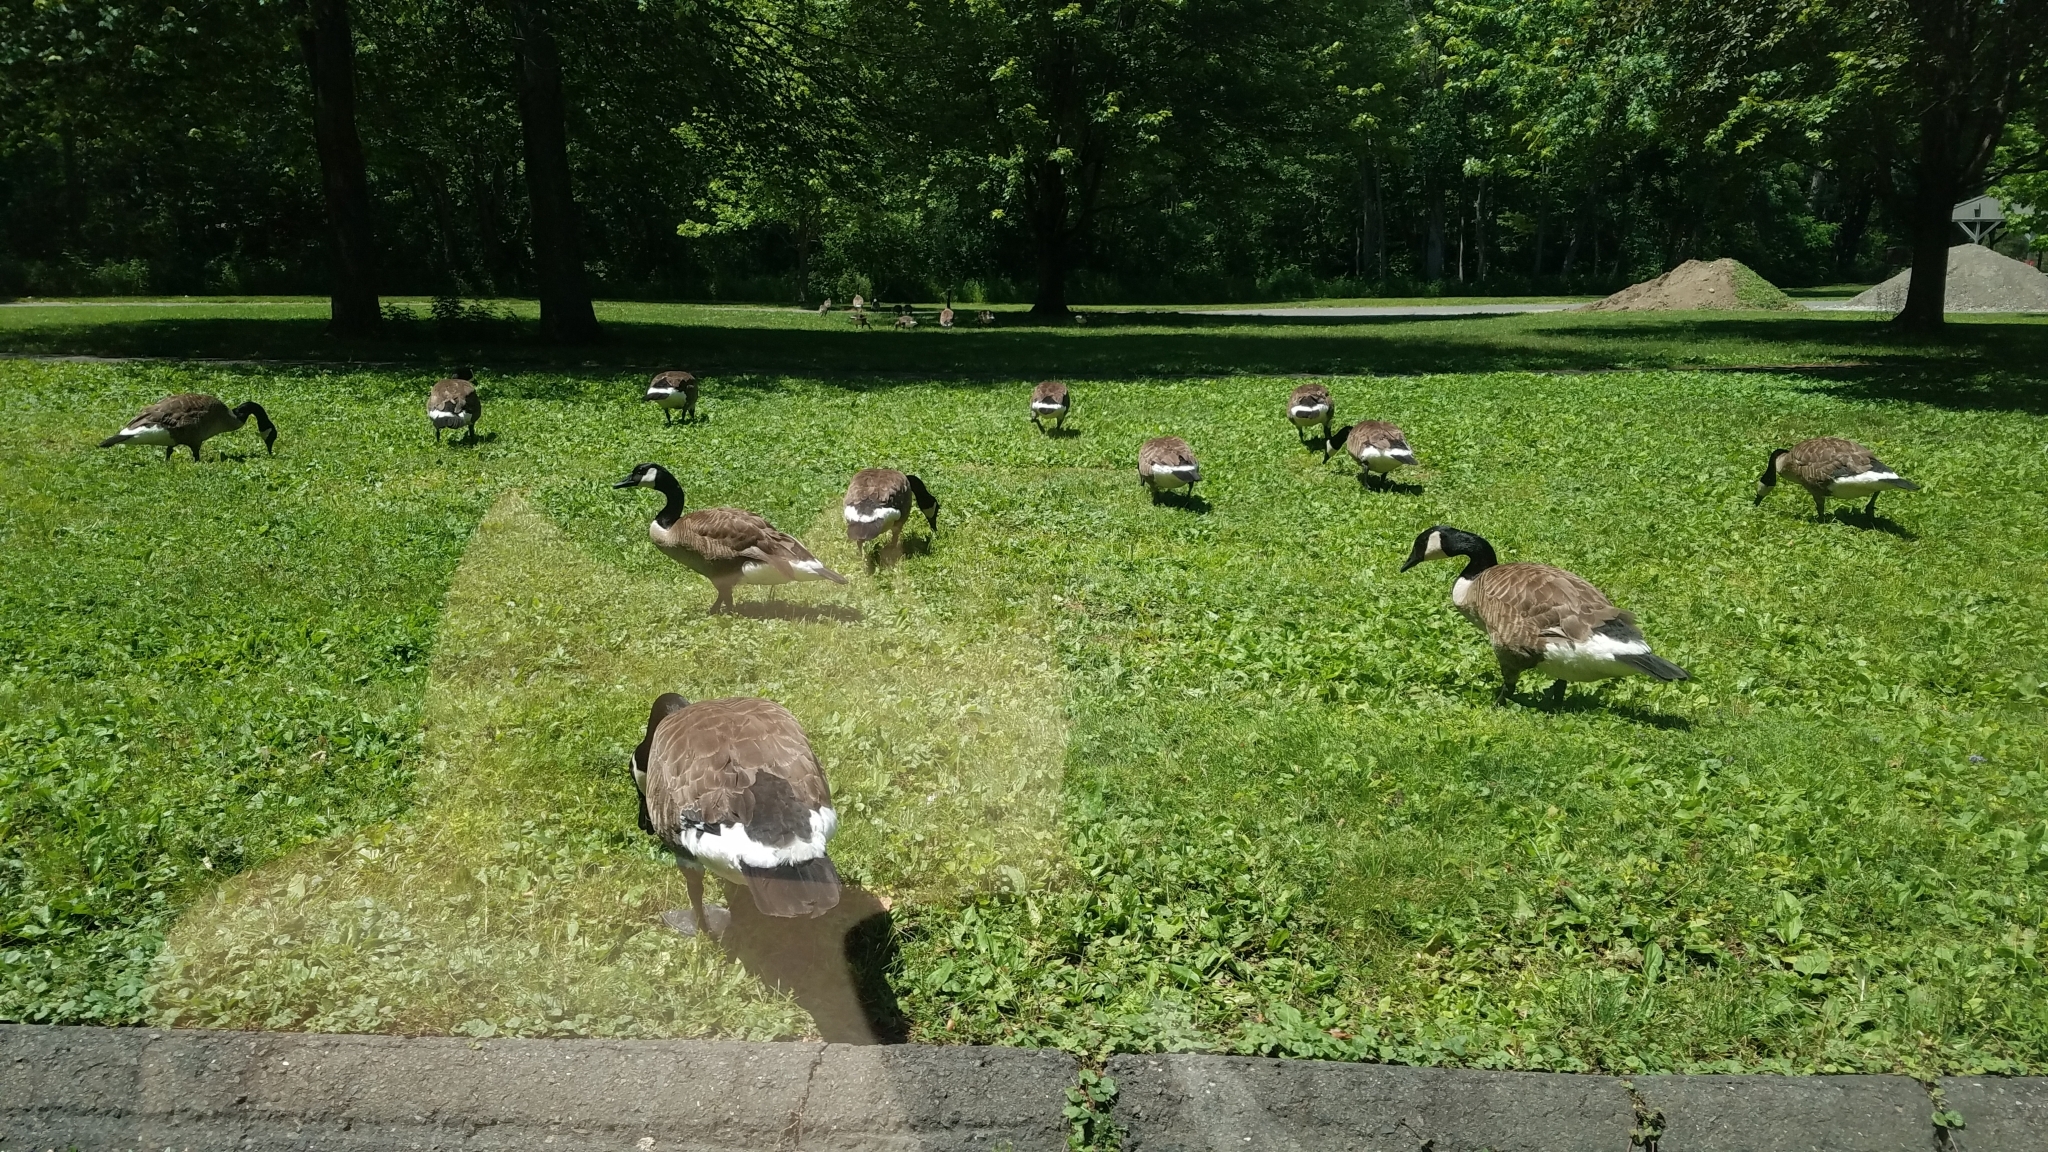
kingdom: Animalia
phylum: Chordata
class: Aves
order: Anseriformes
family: Anatidae
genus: Branta
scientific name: Branta canadensis
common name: Canada goose
